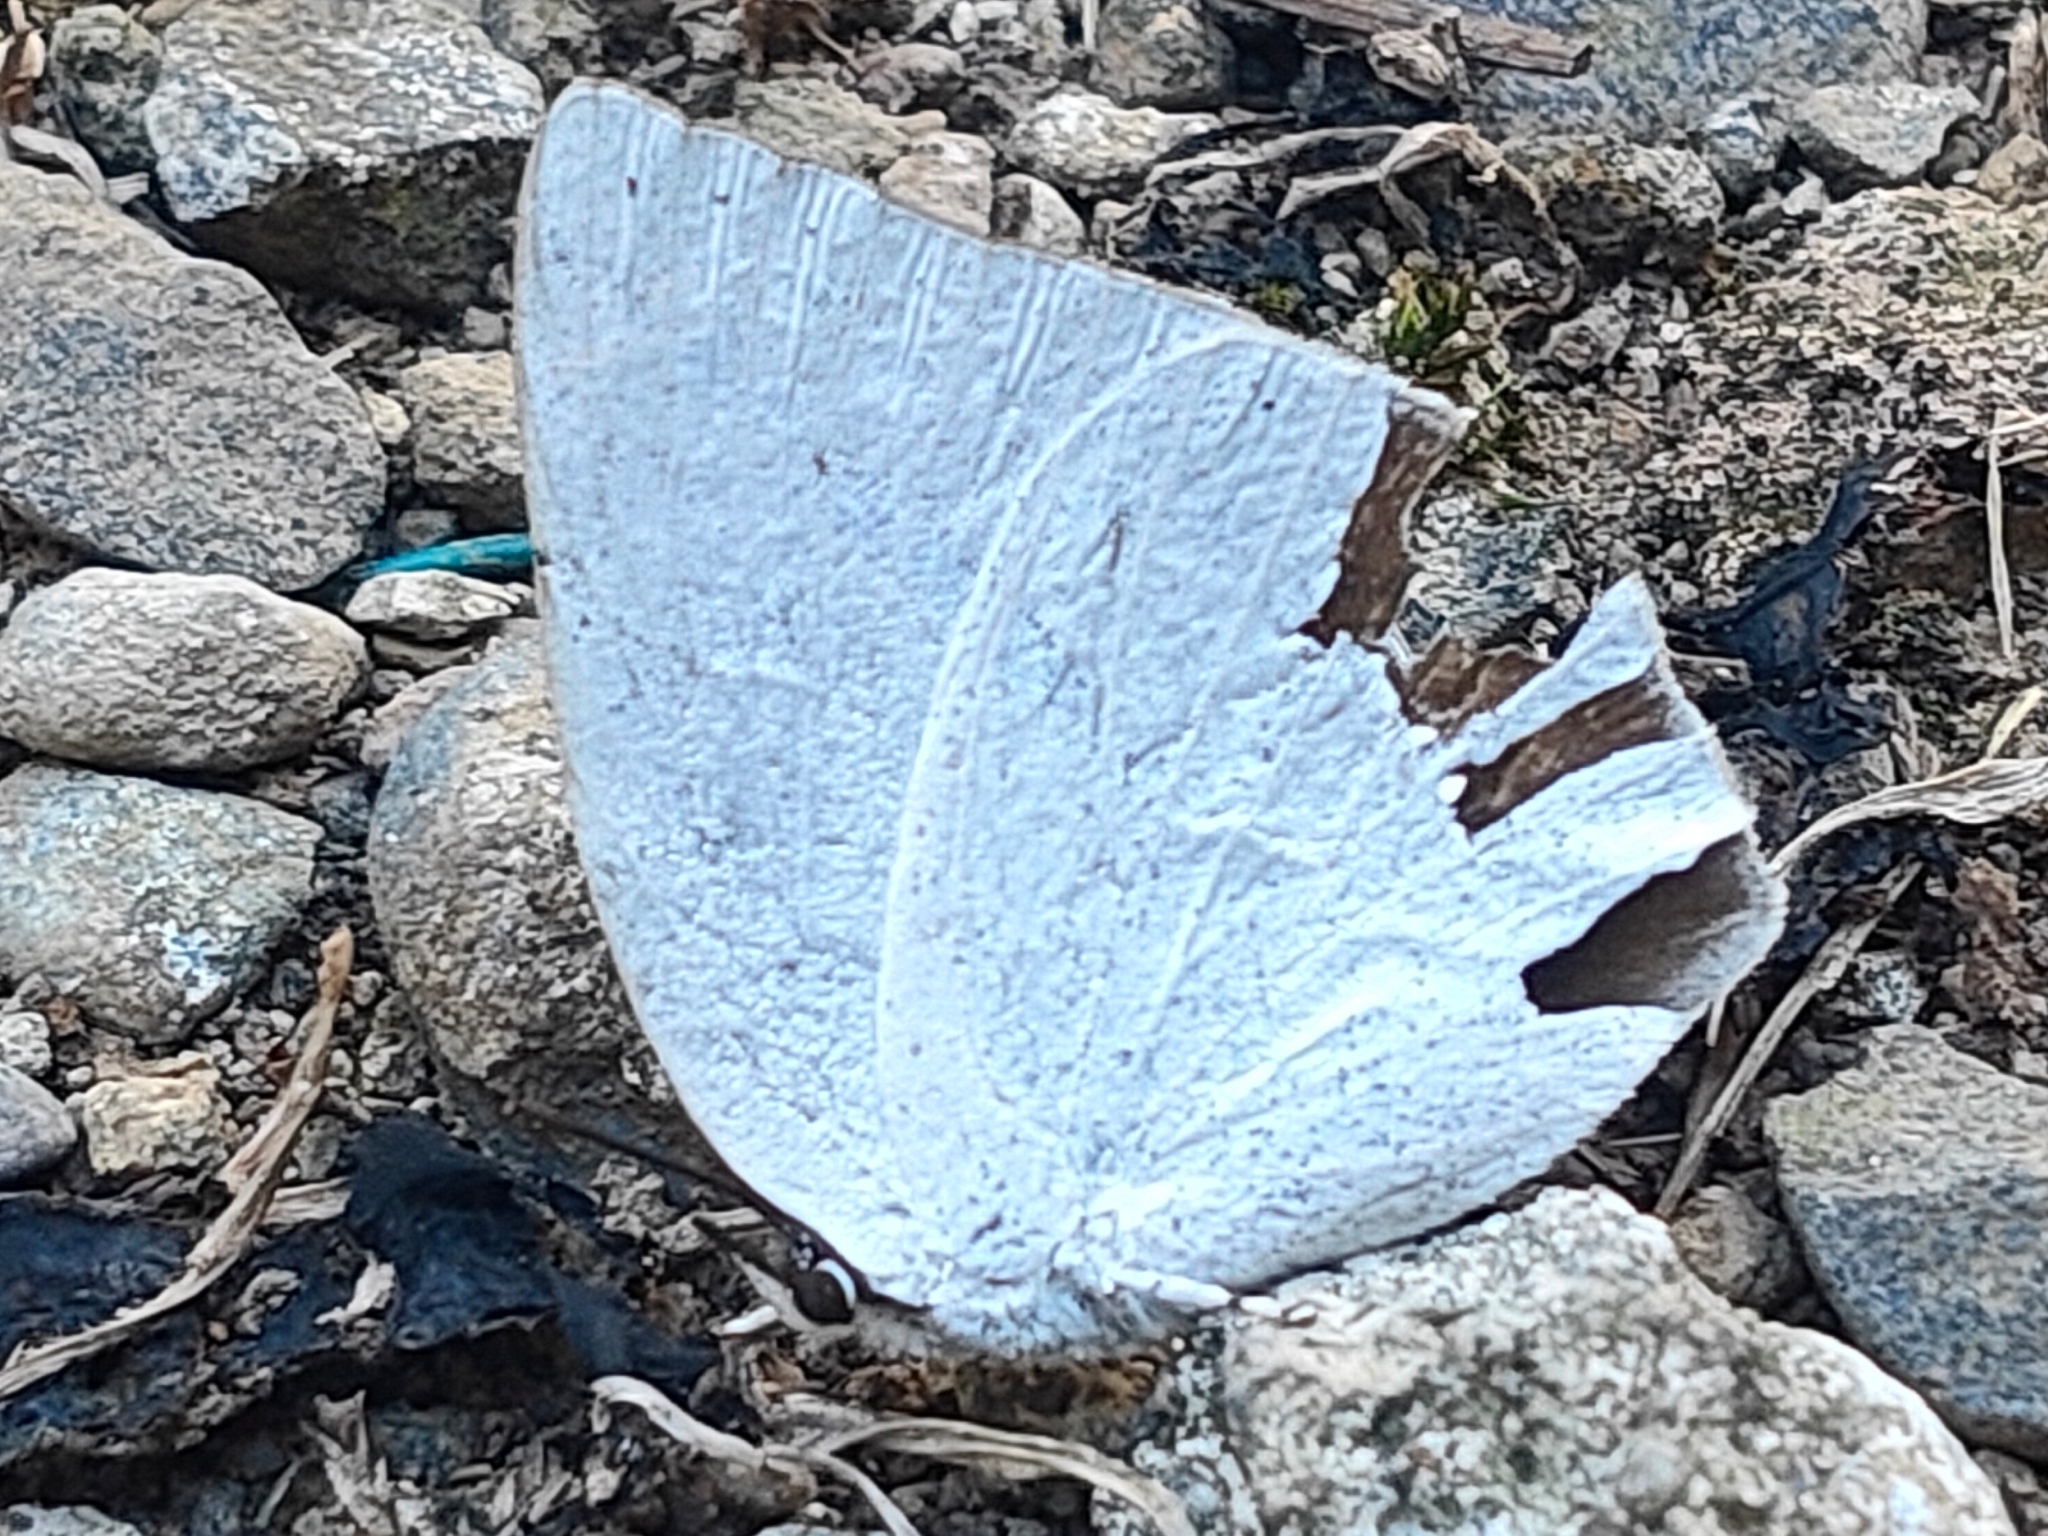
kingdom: Animalia
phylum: Arthropoda
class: Insecta
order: Lepidoptera
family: Lycaenidae
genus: Curetis
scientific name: Curetis acuta
